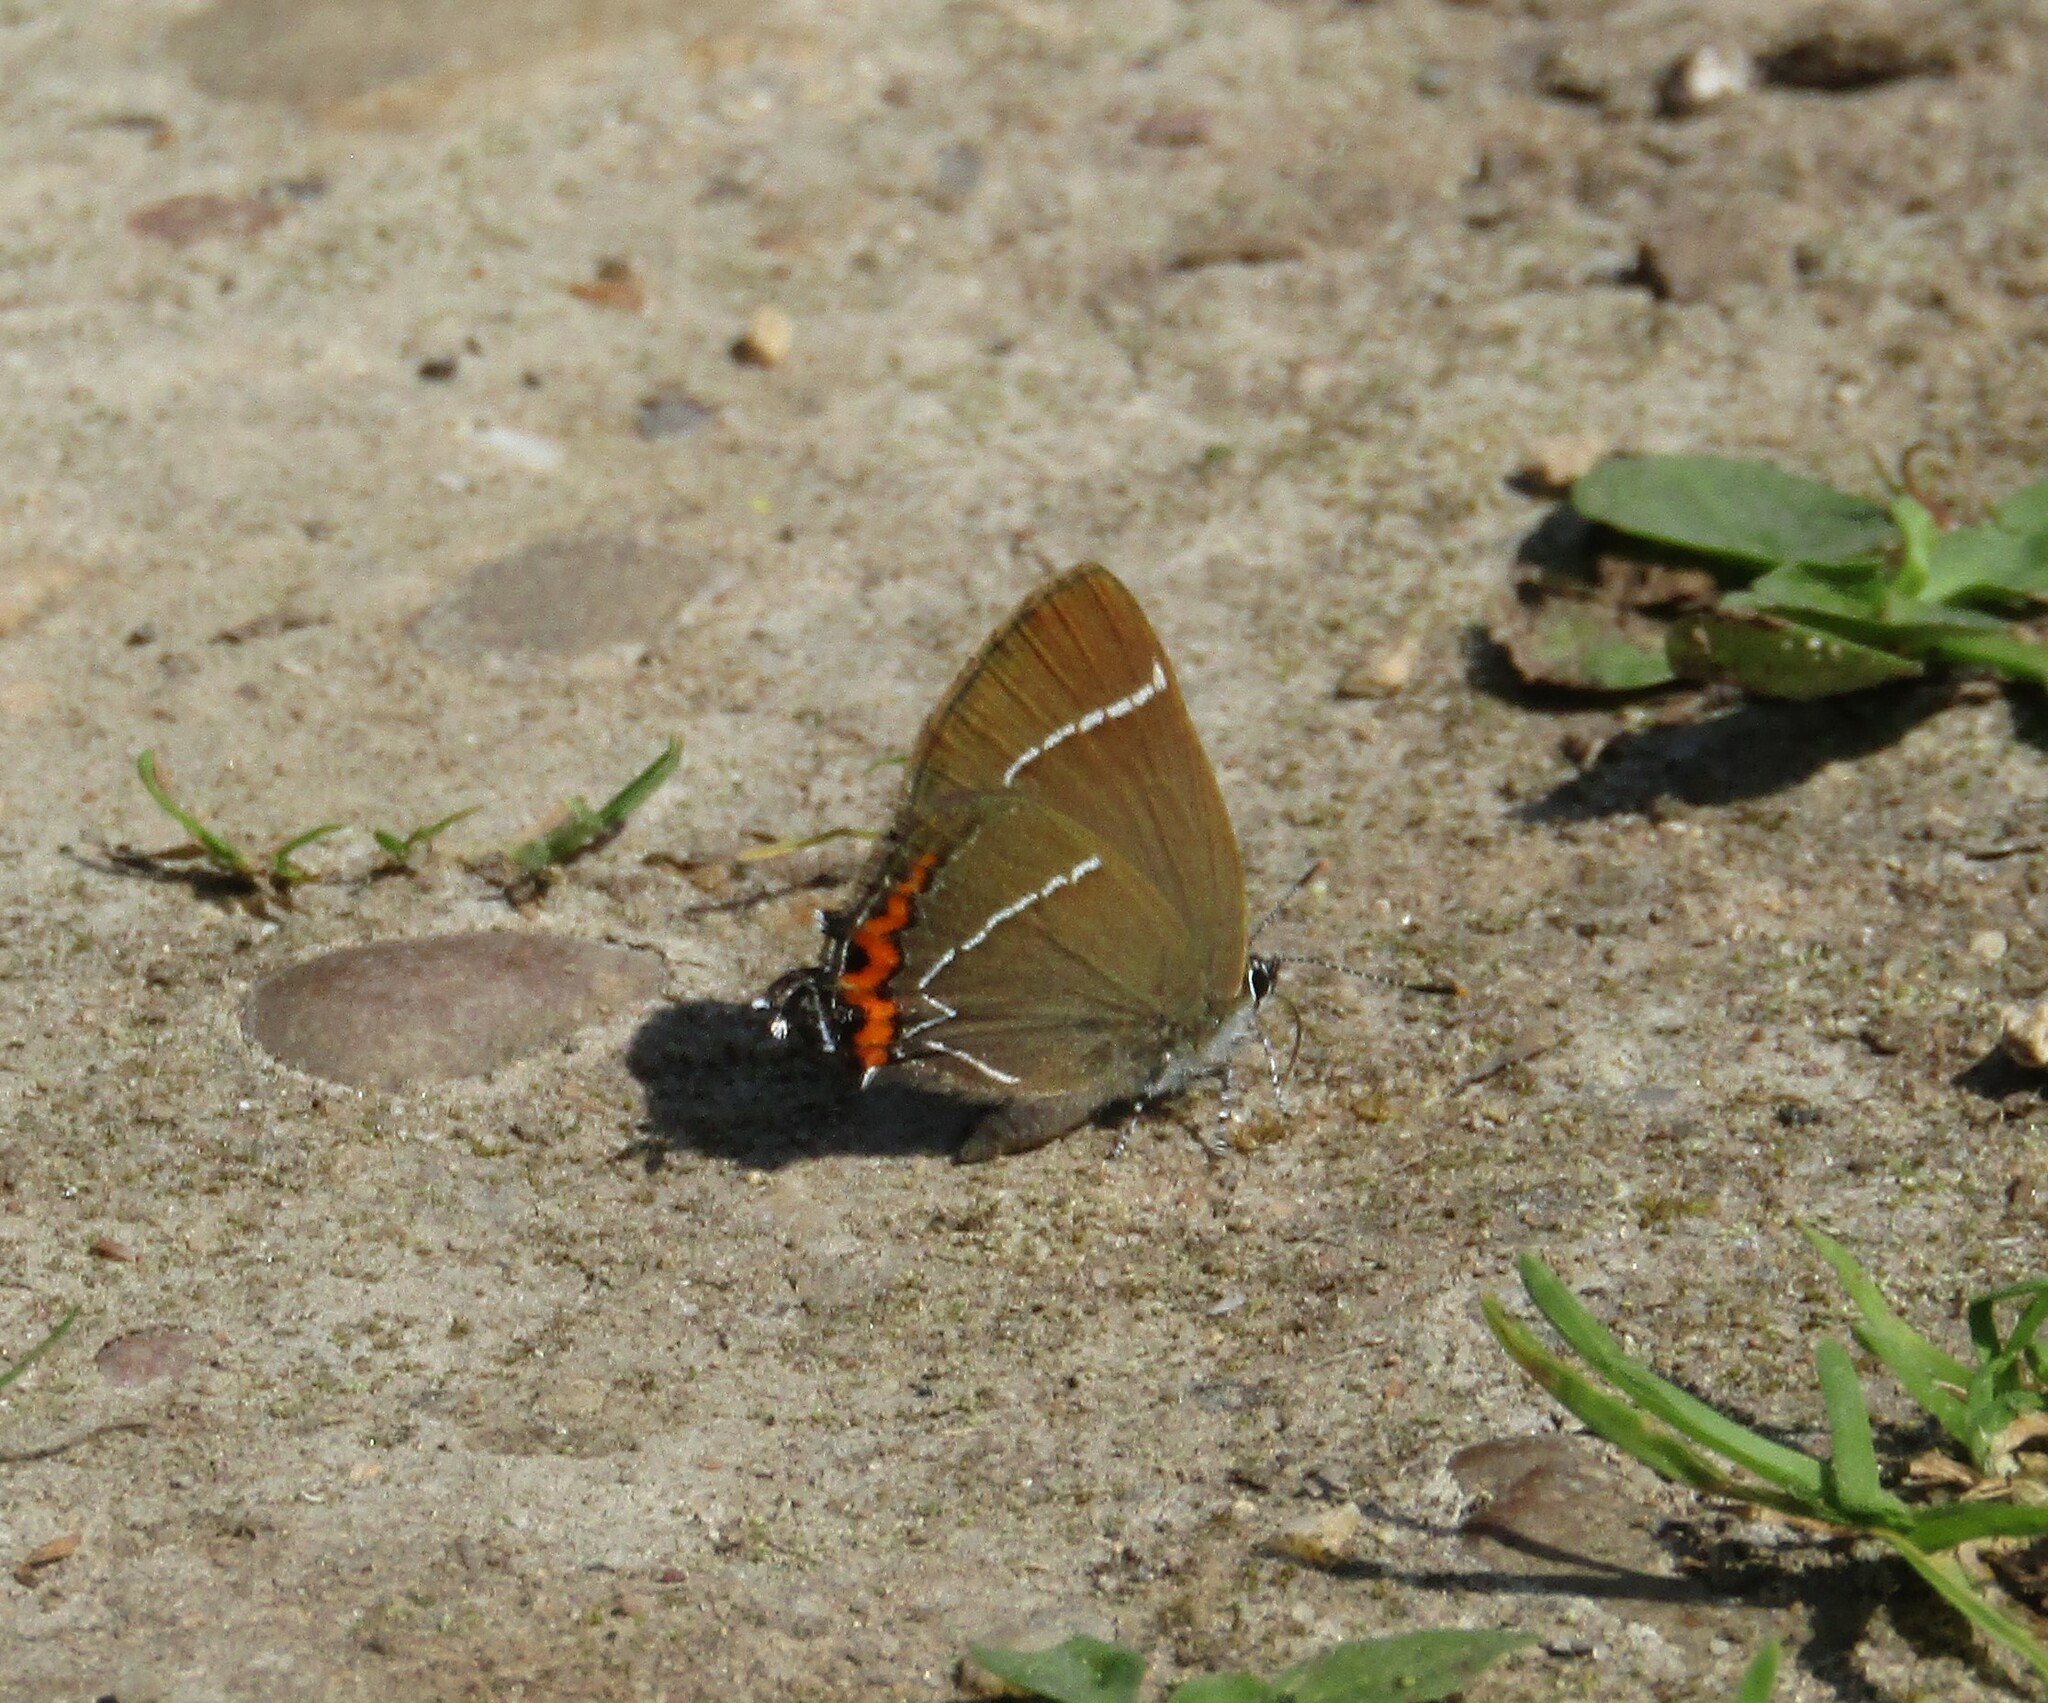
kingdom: Animalia
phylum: Arthropoda
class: Insecta
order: Lepidoptera
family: Lycaenidae
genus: Satyrium
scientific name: Satyrium w-album
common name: White-letter hairstreak
